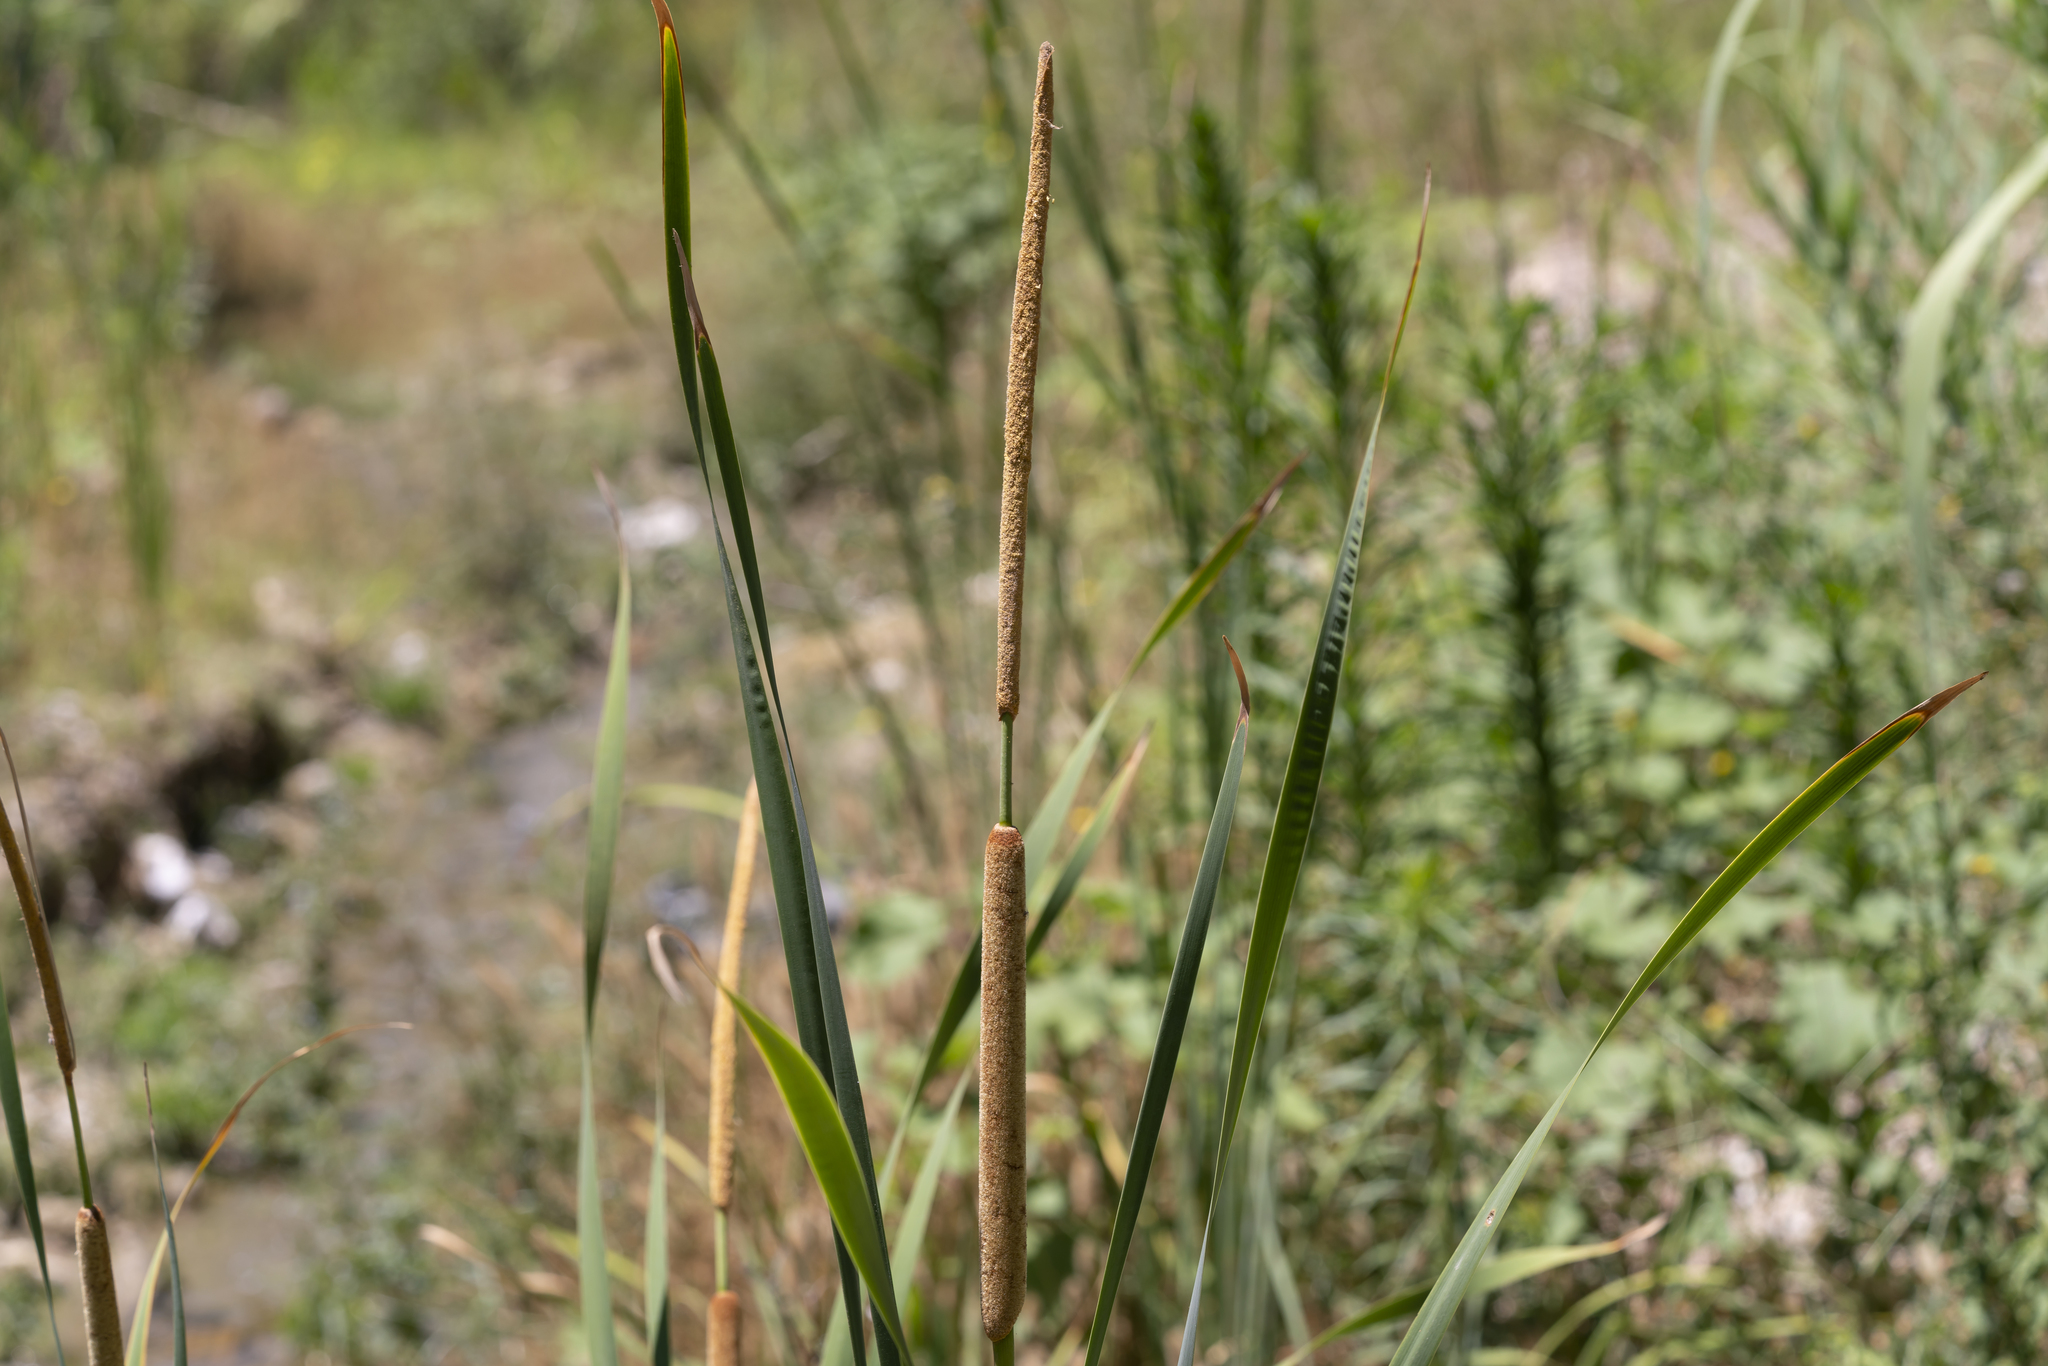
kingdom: Plantae
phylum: Tracheophyta
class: Liliopsida
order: Poales
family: Typhaceae
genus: Typha
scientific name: Typha domingensis
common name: Southern cattail
